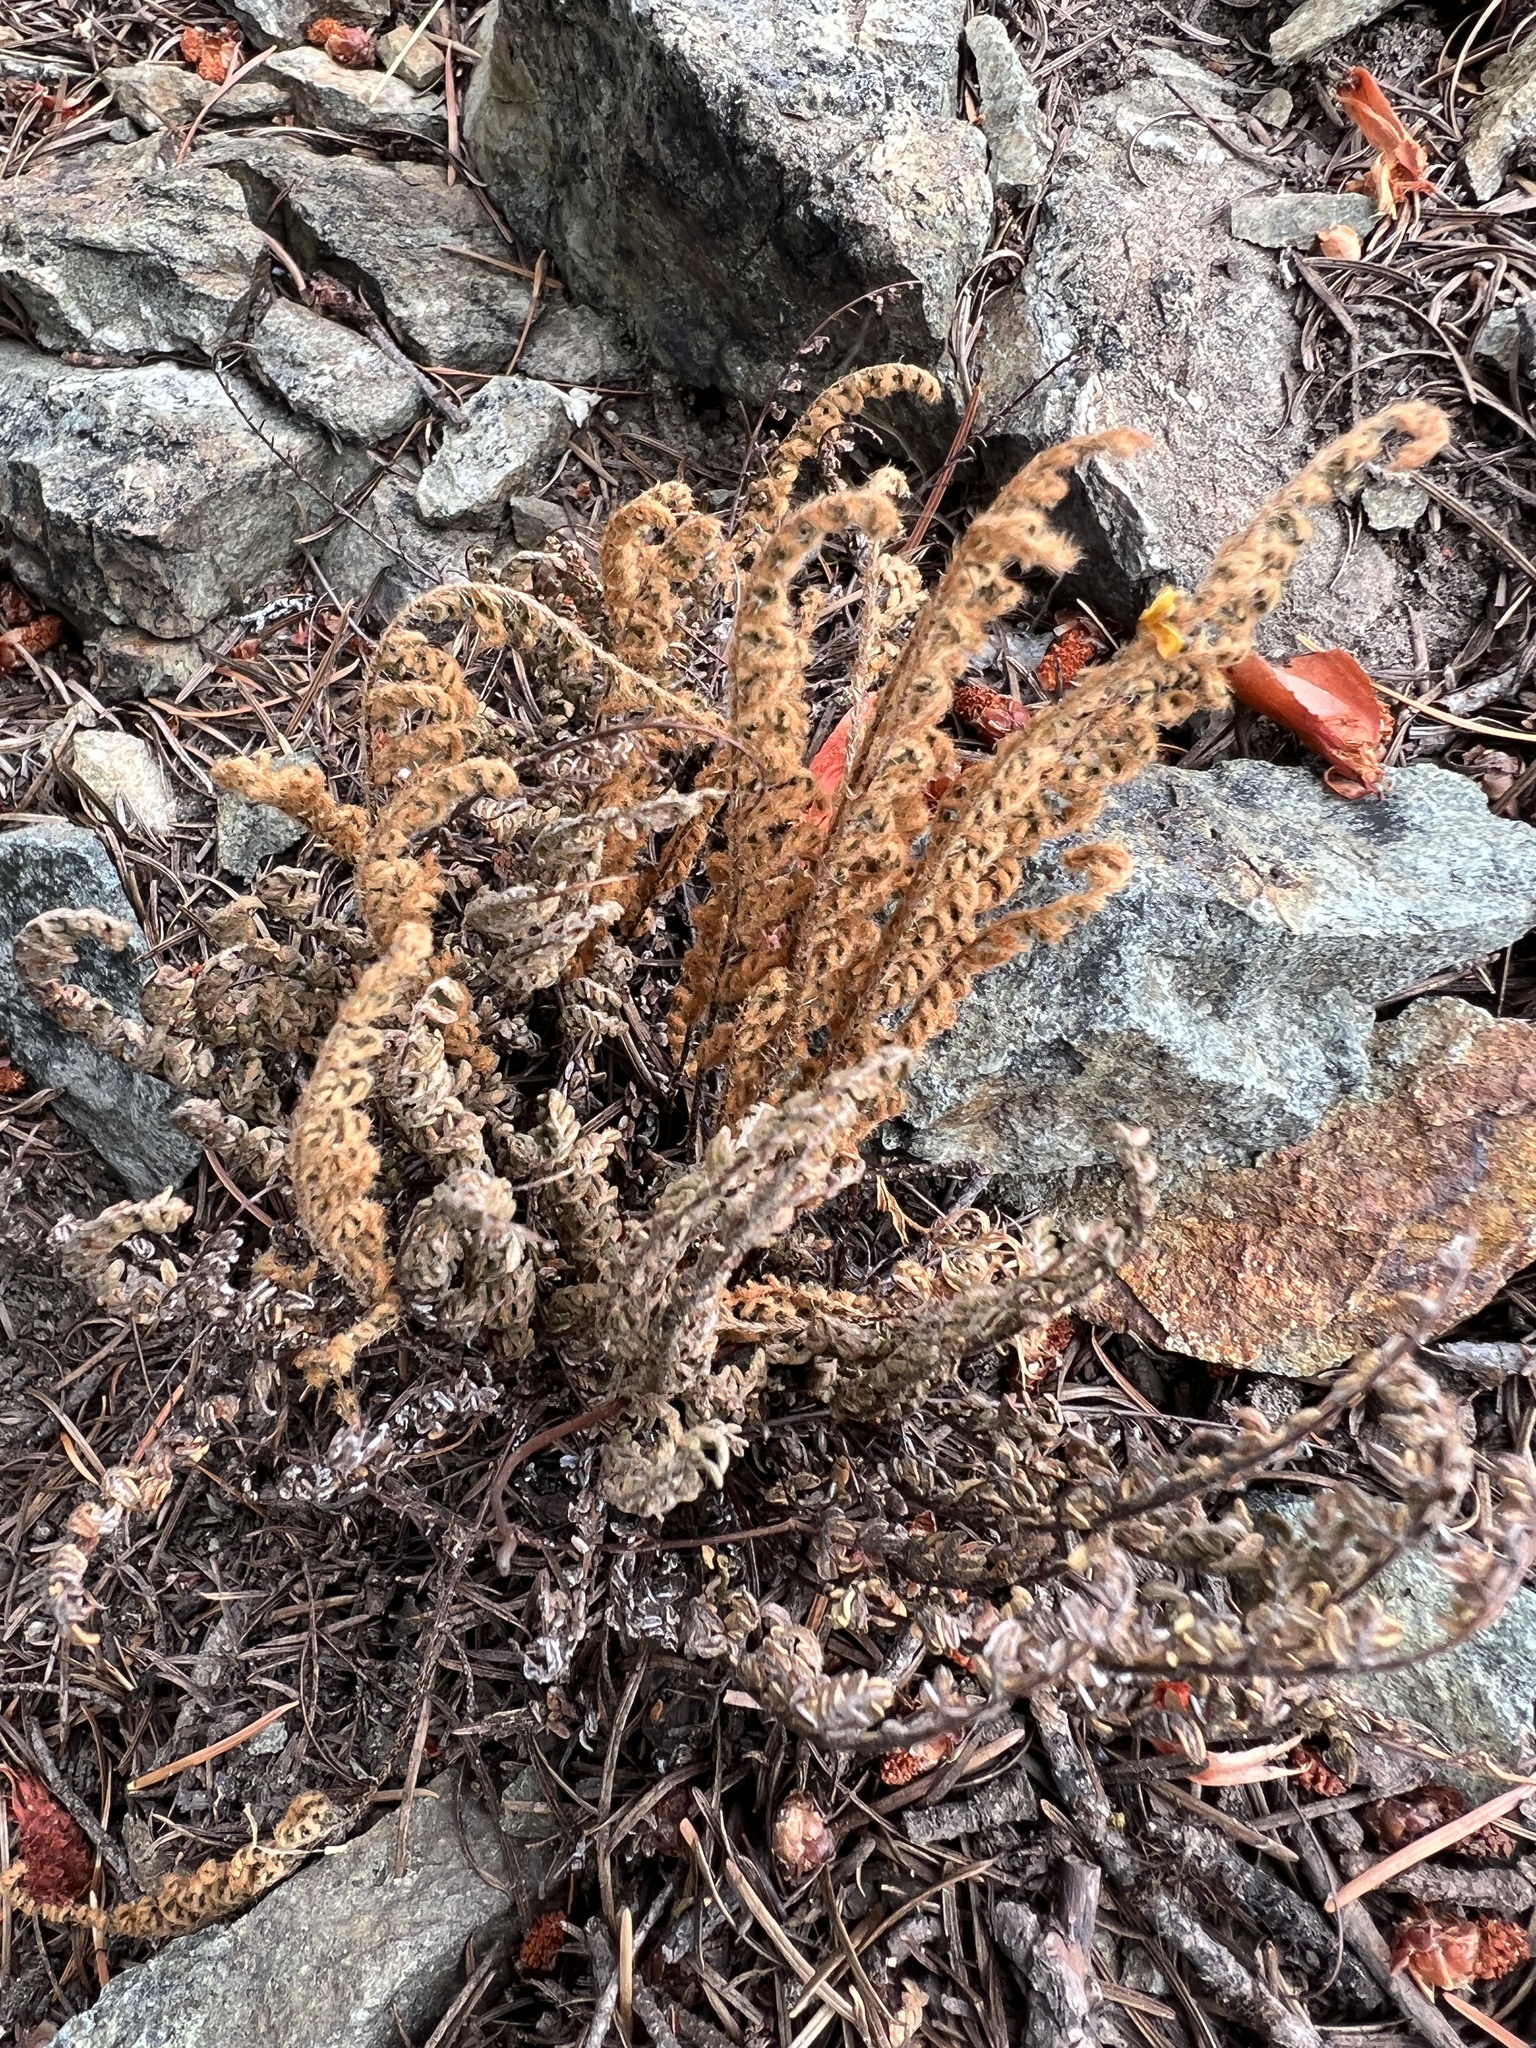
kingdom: Plantae
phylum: Tracheophyta
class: Polypodiopsida
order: Polypodiales
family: Pteridaceae
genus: Myriopteris
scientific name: Myriopteris gracillima
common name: Lace fern
